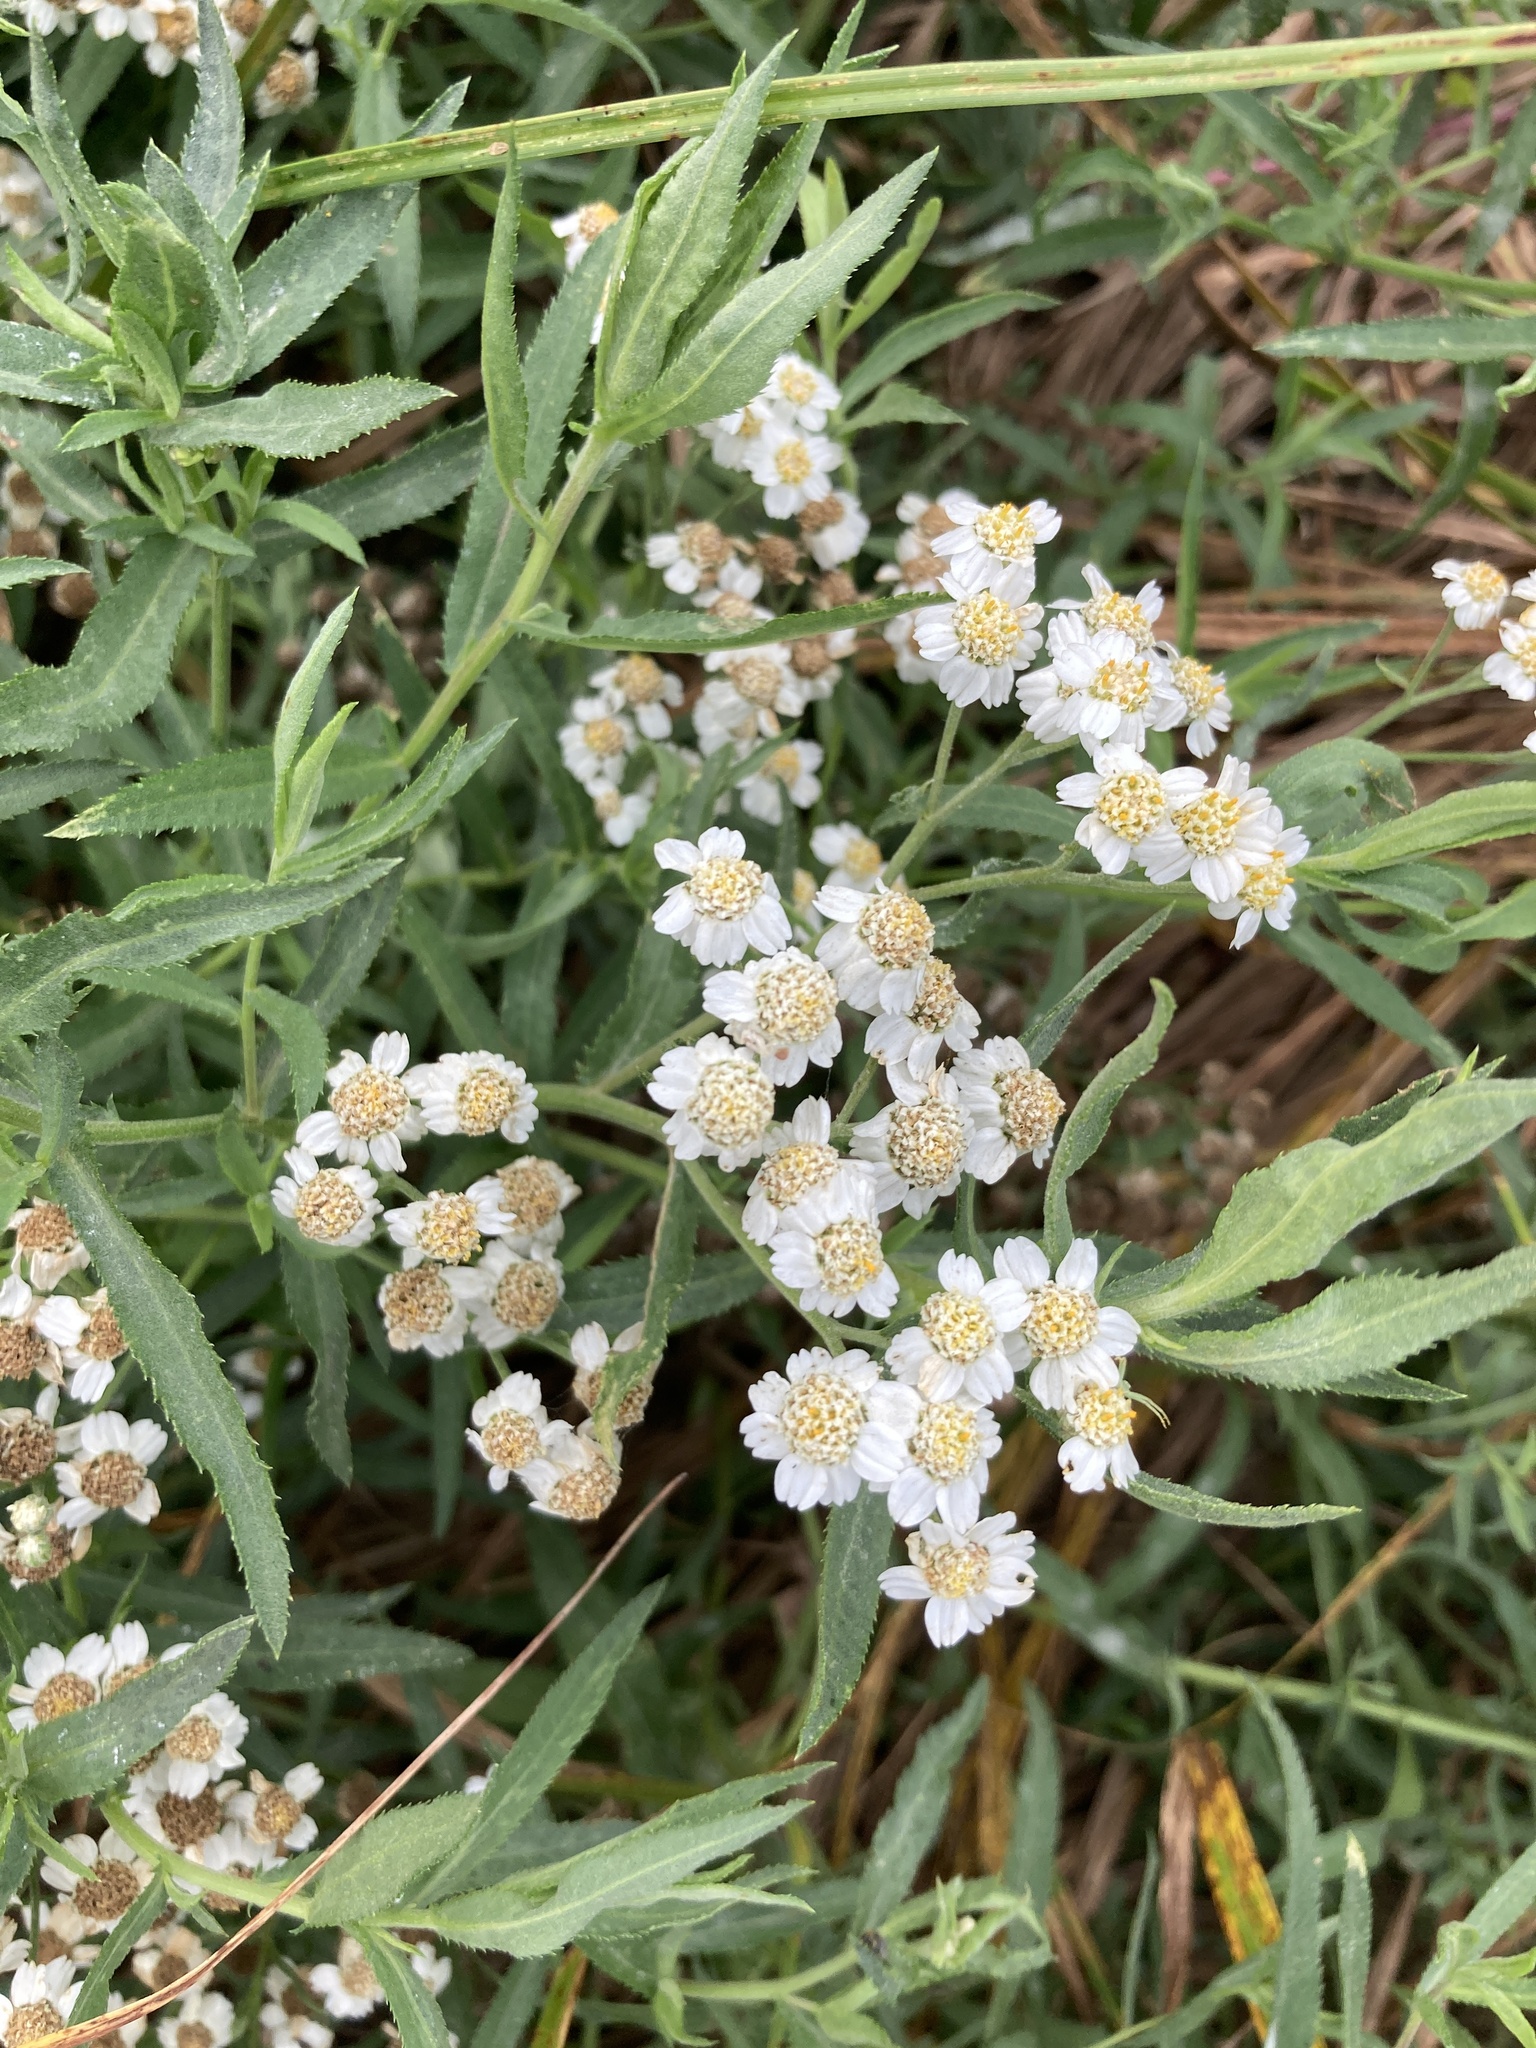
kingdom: Plantae
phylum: Tracheophyta
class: Magnoliopsida
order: Asterales
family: Asteraceae
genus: Achillea
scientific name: Achillea salicifolia
